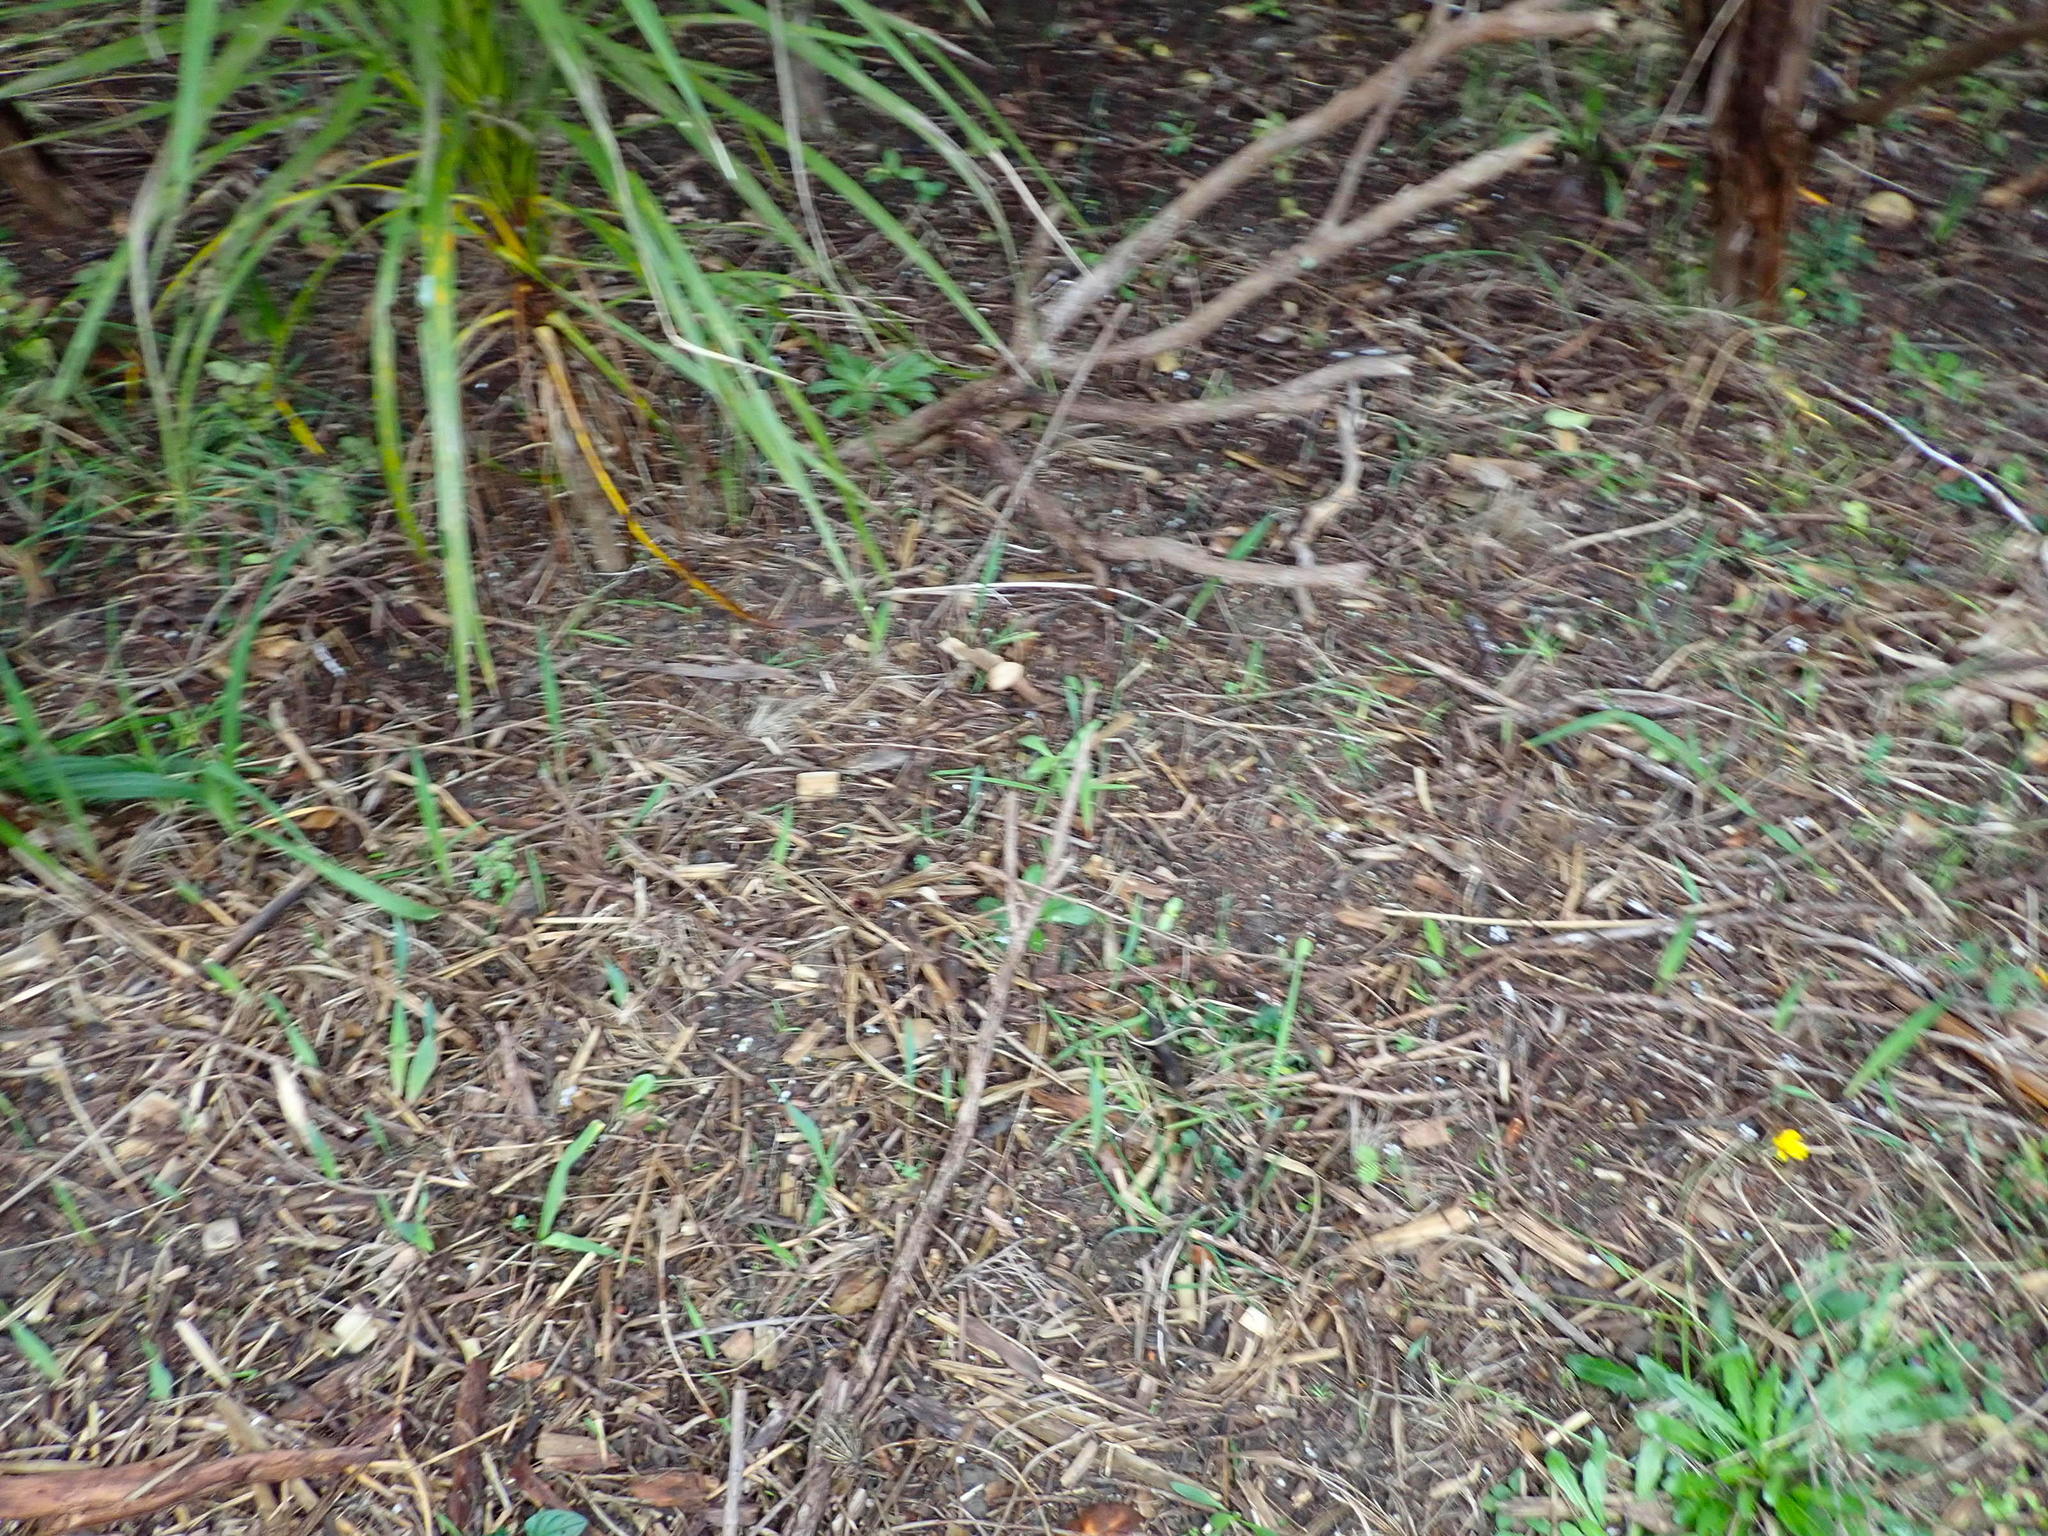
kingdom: Plantae
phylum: Tracheophyta
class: Liliopsida
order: Asparagales
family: Asparagaceae
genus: Cordyline
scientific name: Cordyline australis
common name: Cabbage-palm
